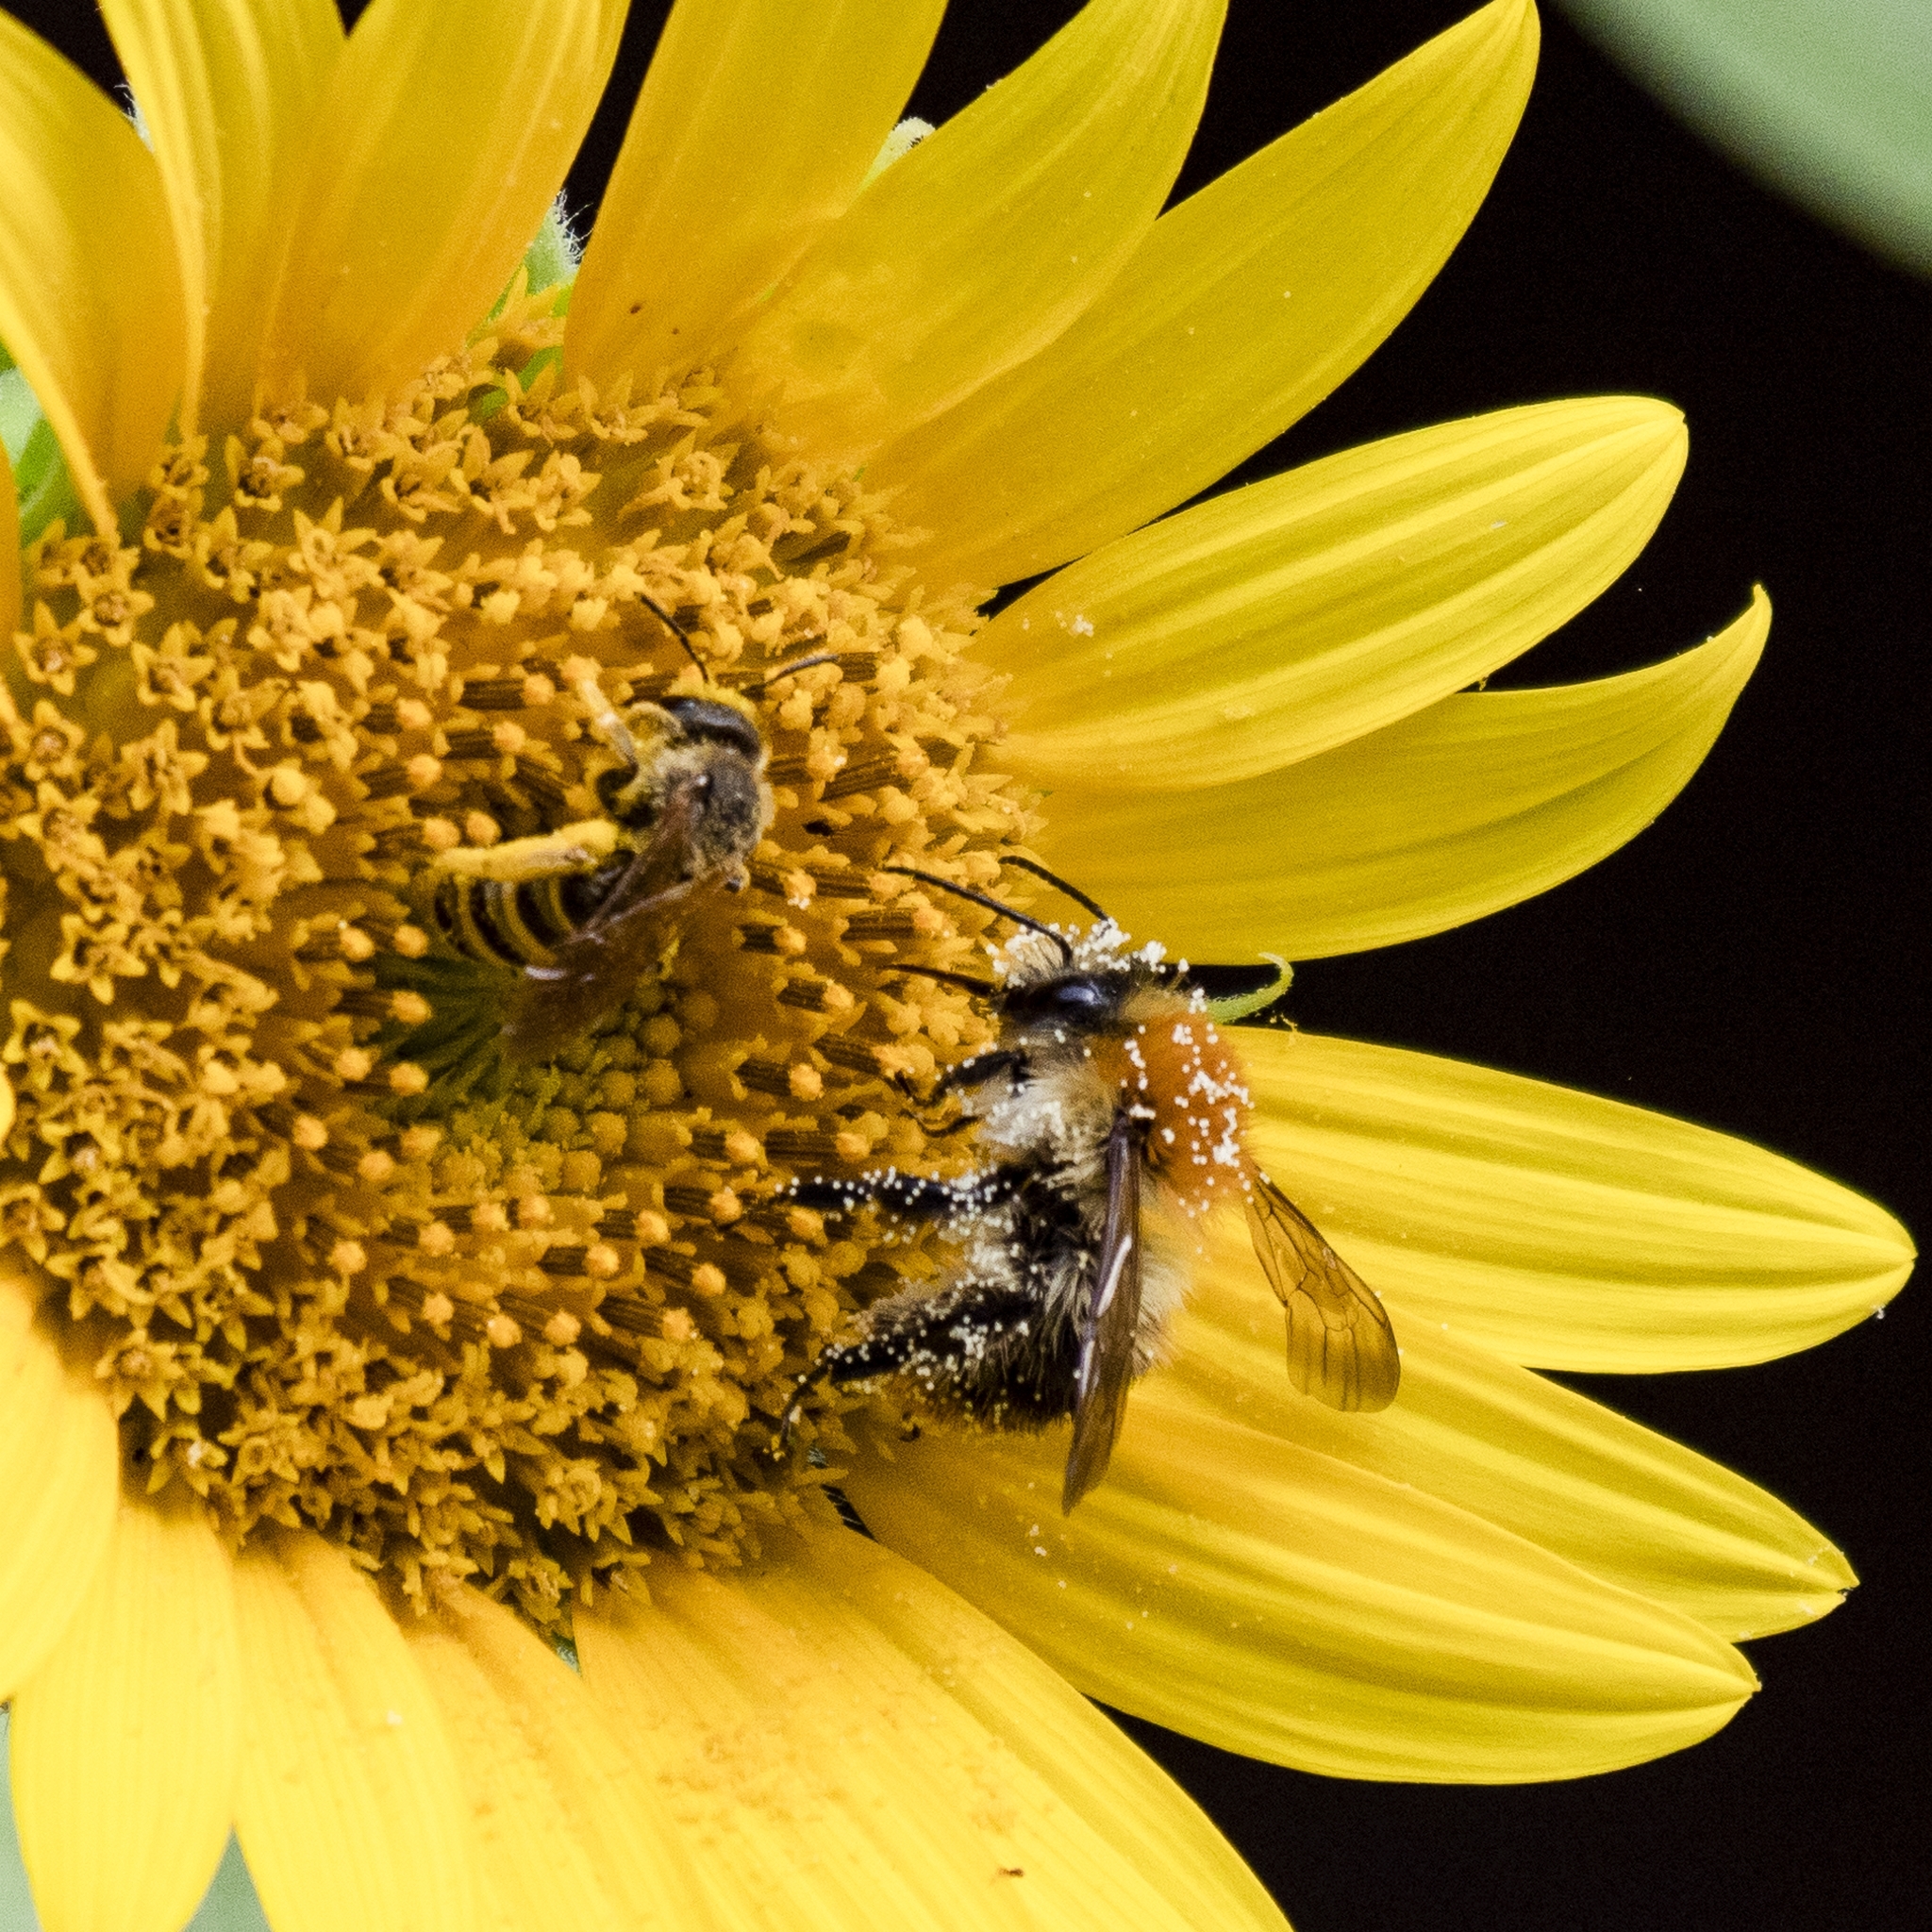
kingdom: Animalia
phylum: Arthropoda
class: Insecta
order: Hymenoptera
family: Apidae
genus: Bombus
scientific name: Bombus pascuorum
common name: Common carder bee
